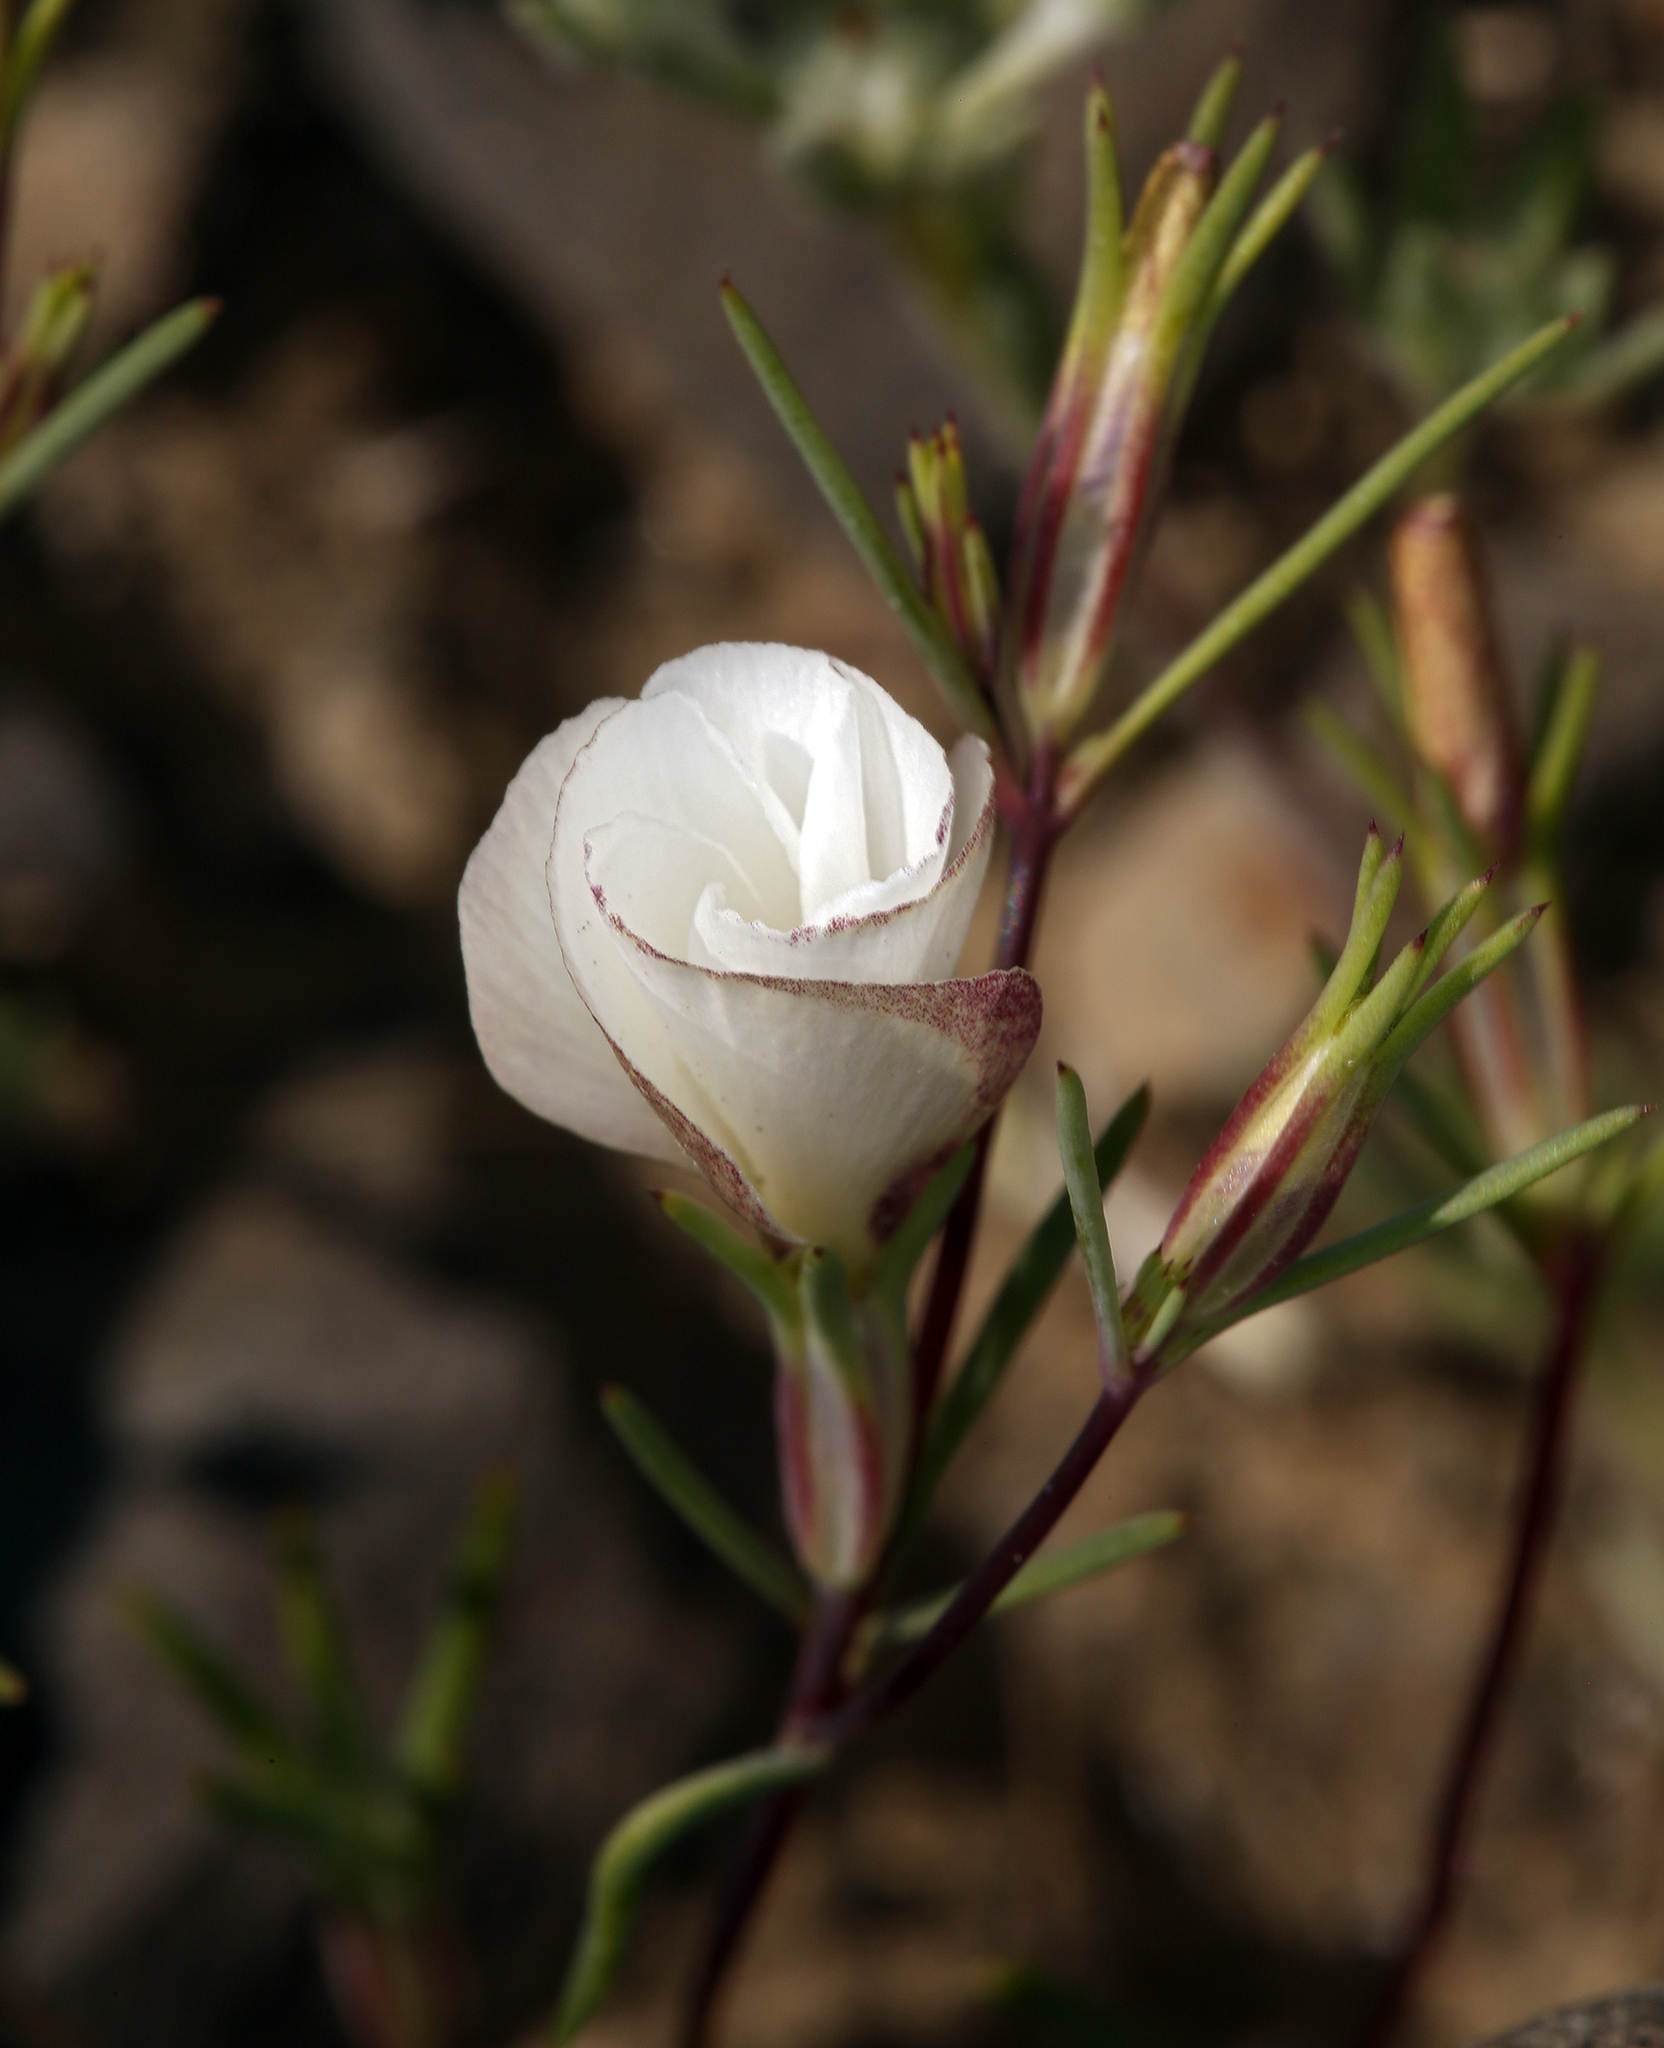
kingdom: Plantae
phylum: Tracheophyta
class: Magnoliopsida
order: Ericales
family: Polemoniaceae
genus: Linanthus
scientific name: Linanthus dichotomus
